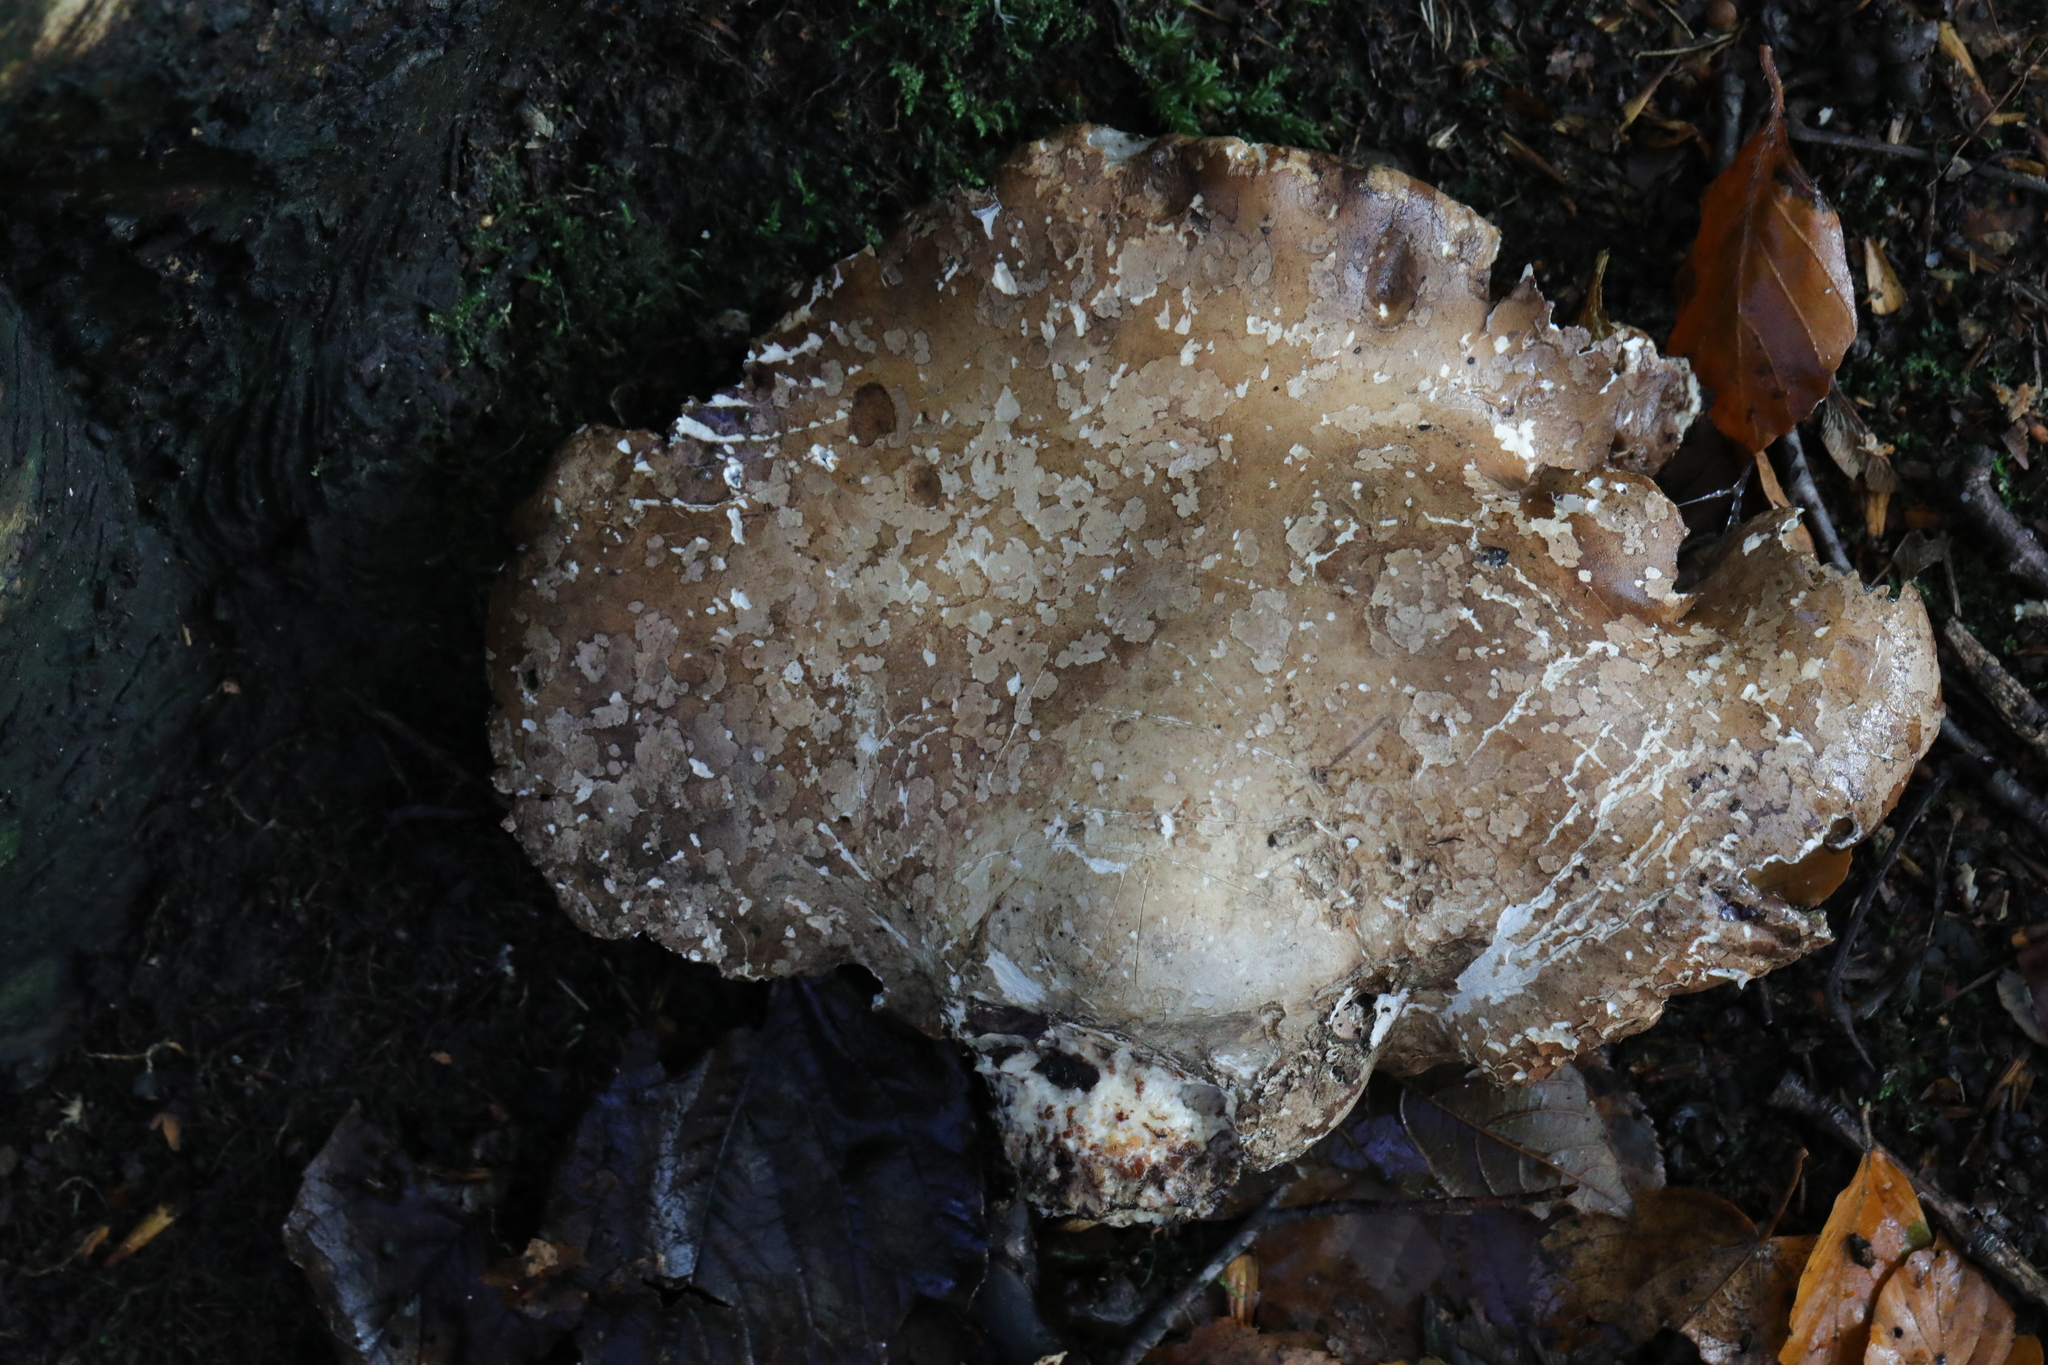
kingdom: Fungi
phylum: Basidiomycota
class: Agaricomycetes
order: Polyporales
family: Fomitopsidaceae
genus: Fomitopsis
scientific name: Fomitopsis betulina
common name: Birch polypore
